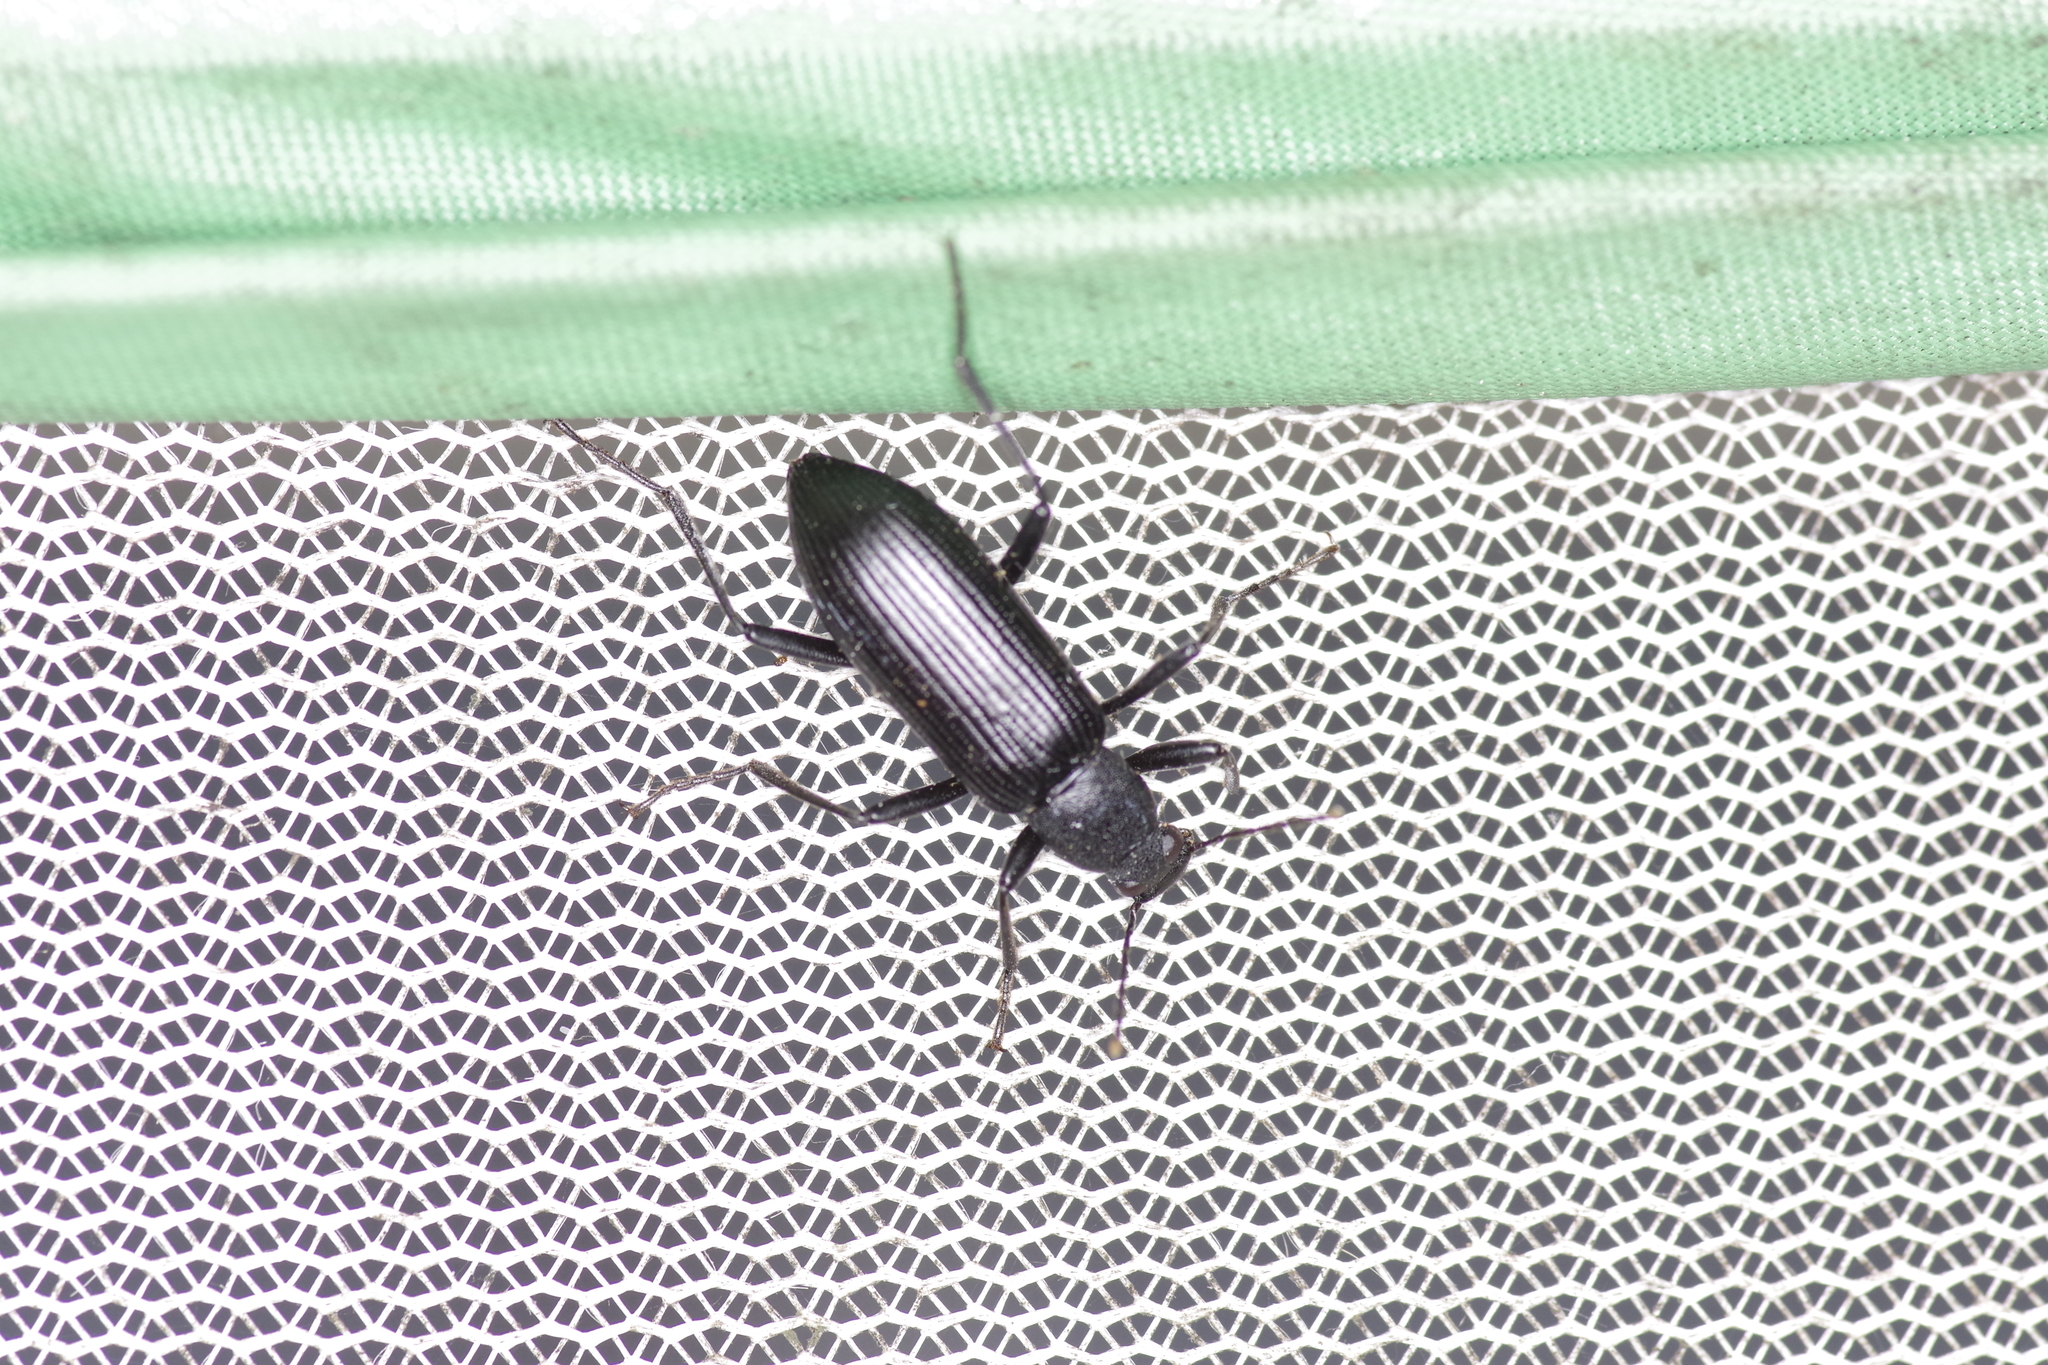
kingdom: Animalia
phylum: Arthropoda
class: Insecta
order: Coleoptera
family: Tenebrionidae
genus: Strongylium
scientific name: Strongylium tenuicolle
